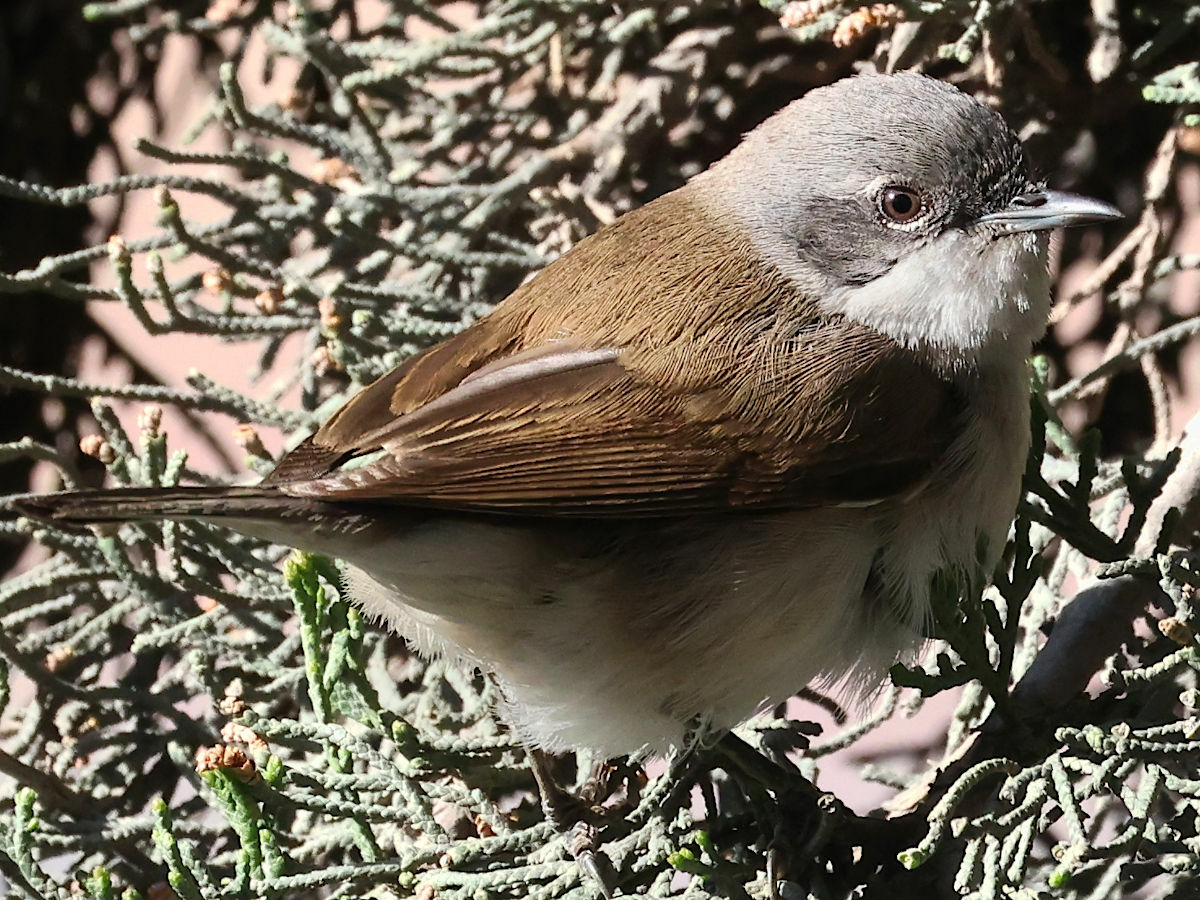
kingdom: Animalia
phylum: Chordata
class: Aves
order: Passeriformes
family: Sylviidae
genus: Sylvia
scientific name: Sylvia curruca
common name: Lesser whitethroat
